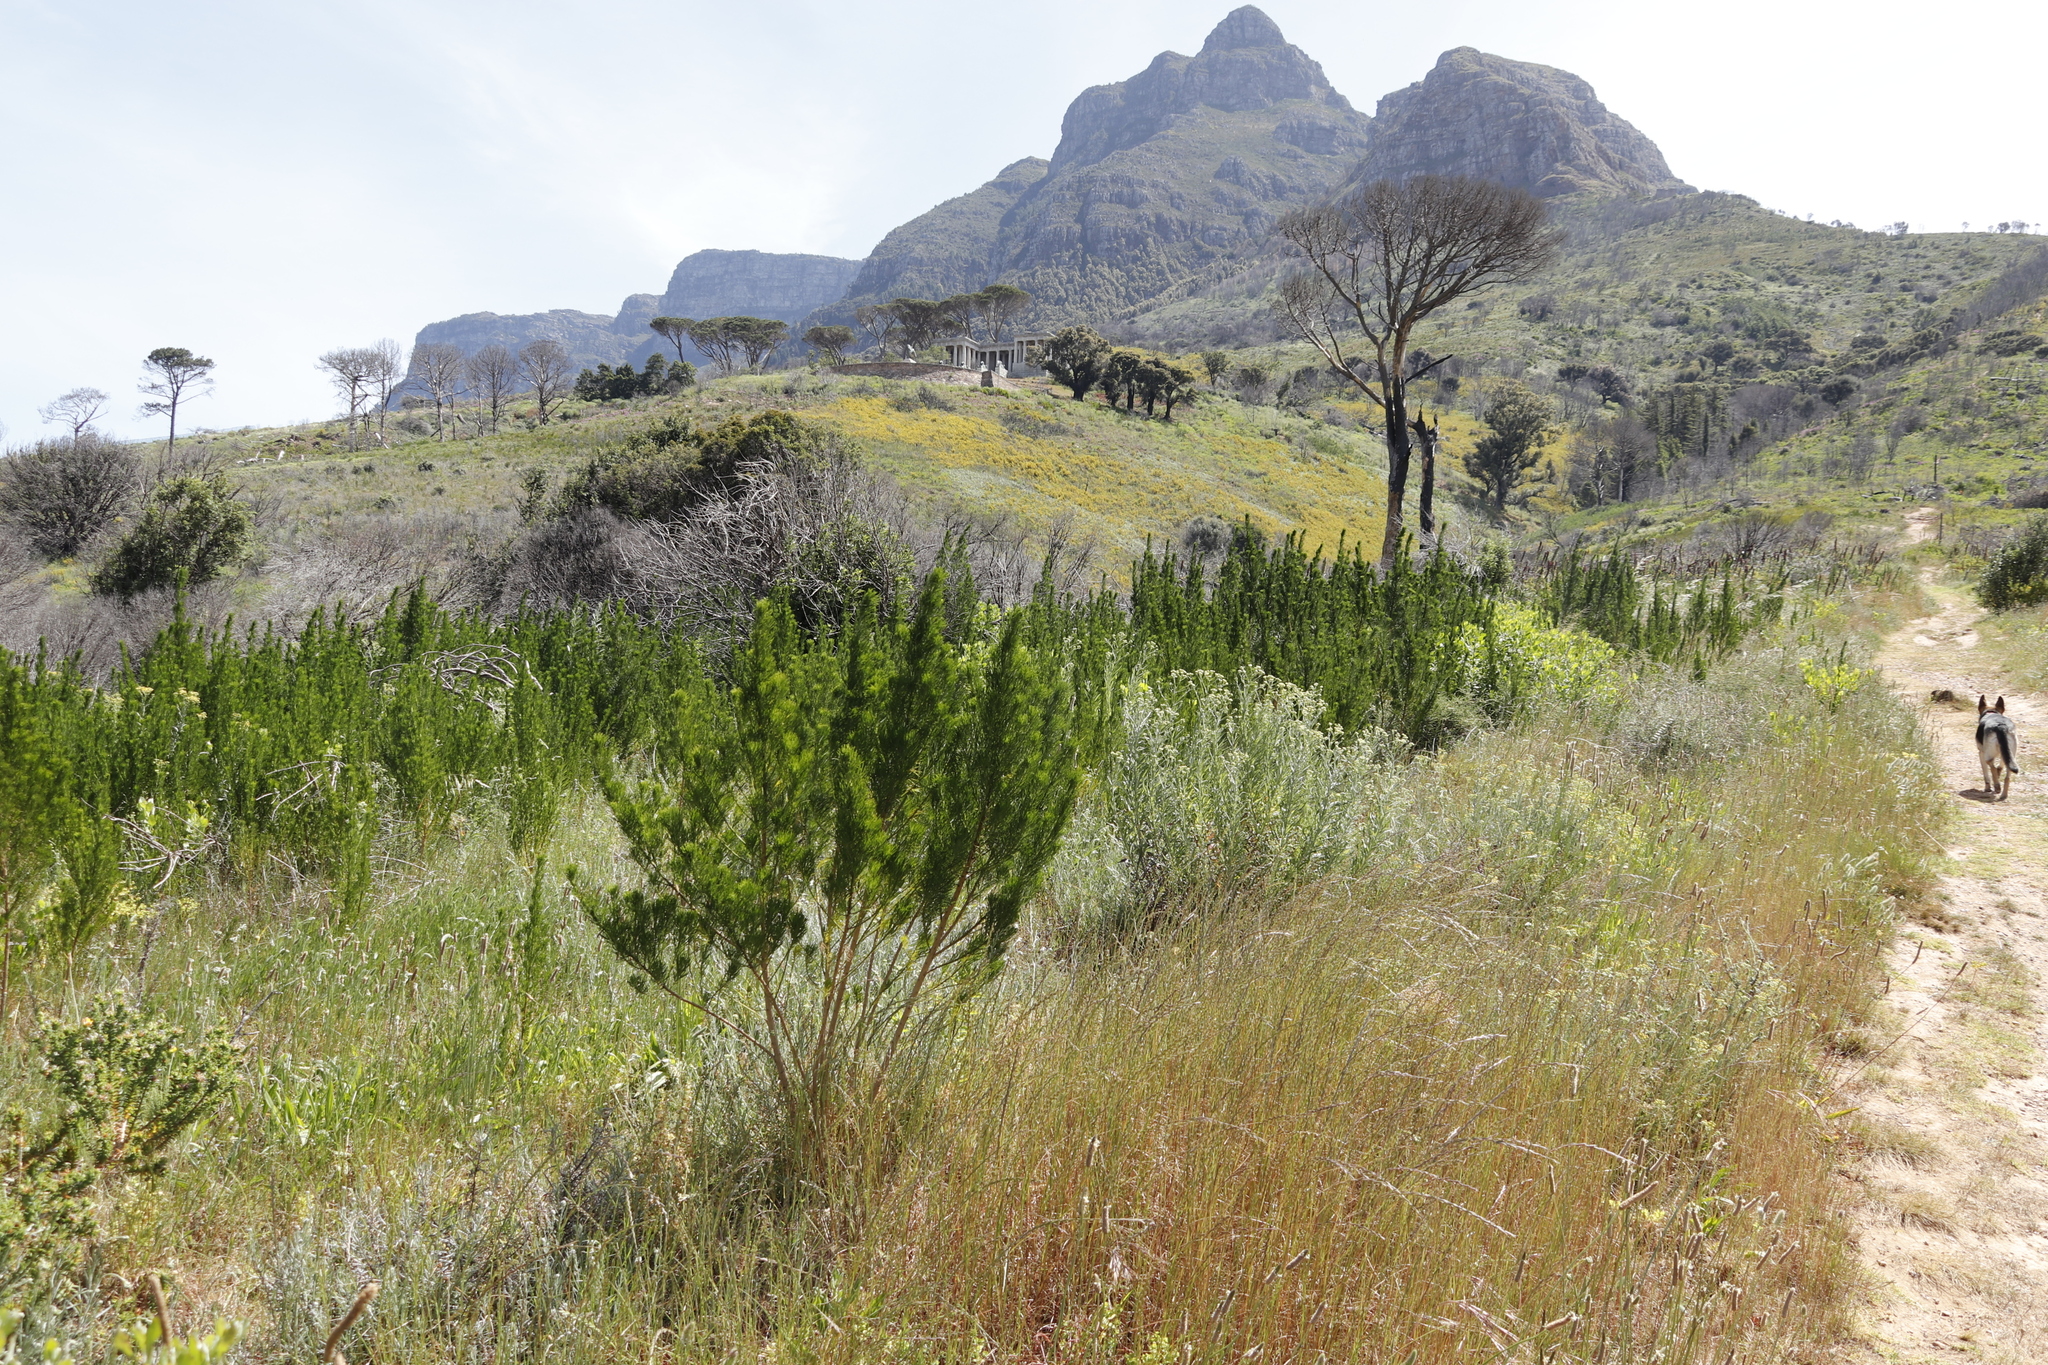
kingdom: Plantae
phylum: Tracheophyta
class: Magnoliopsida
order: Fabales
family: Fabaceae
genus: Psoralea
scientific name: Psoralea pinnata
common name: African scurfpea
